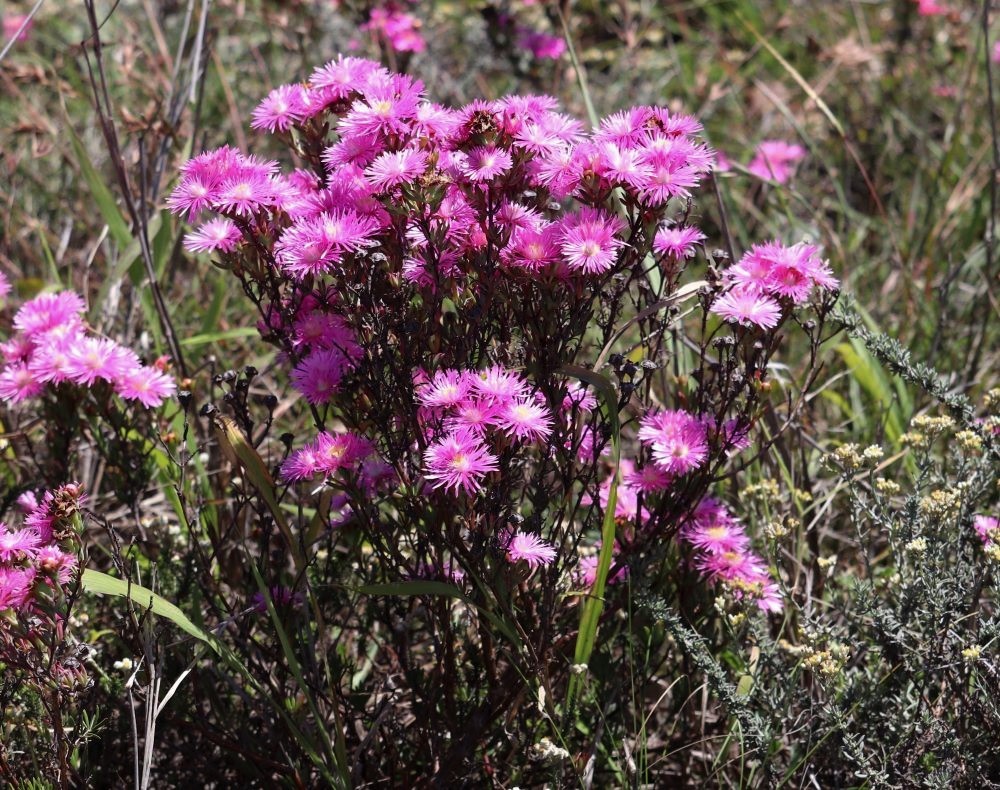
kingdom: Plantae
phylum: Tracheophyta
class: Magnoliopsida
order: Caryophyllales
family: Aizoaceae
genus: Lampranthus
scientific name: Lampranthus mutans
